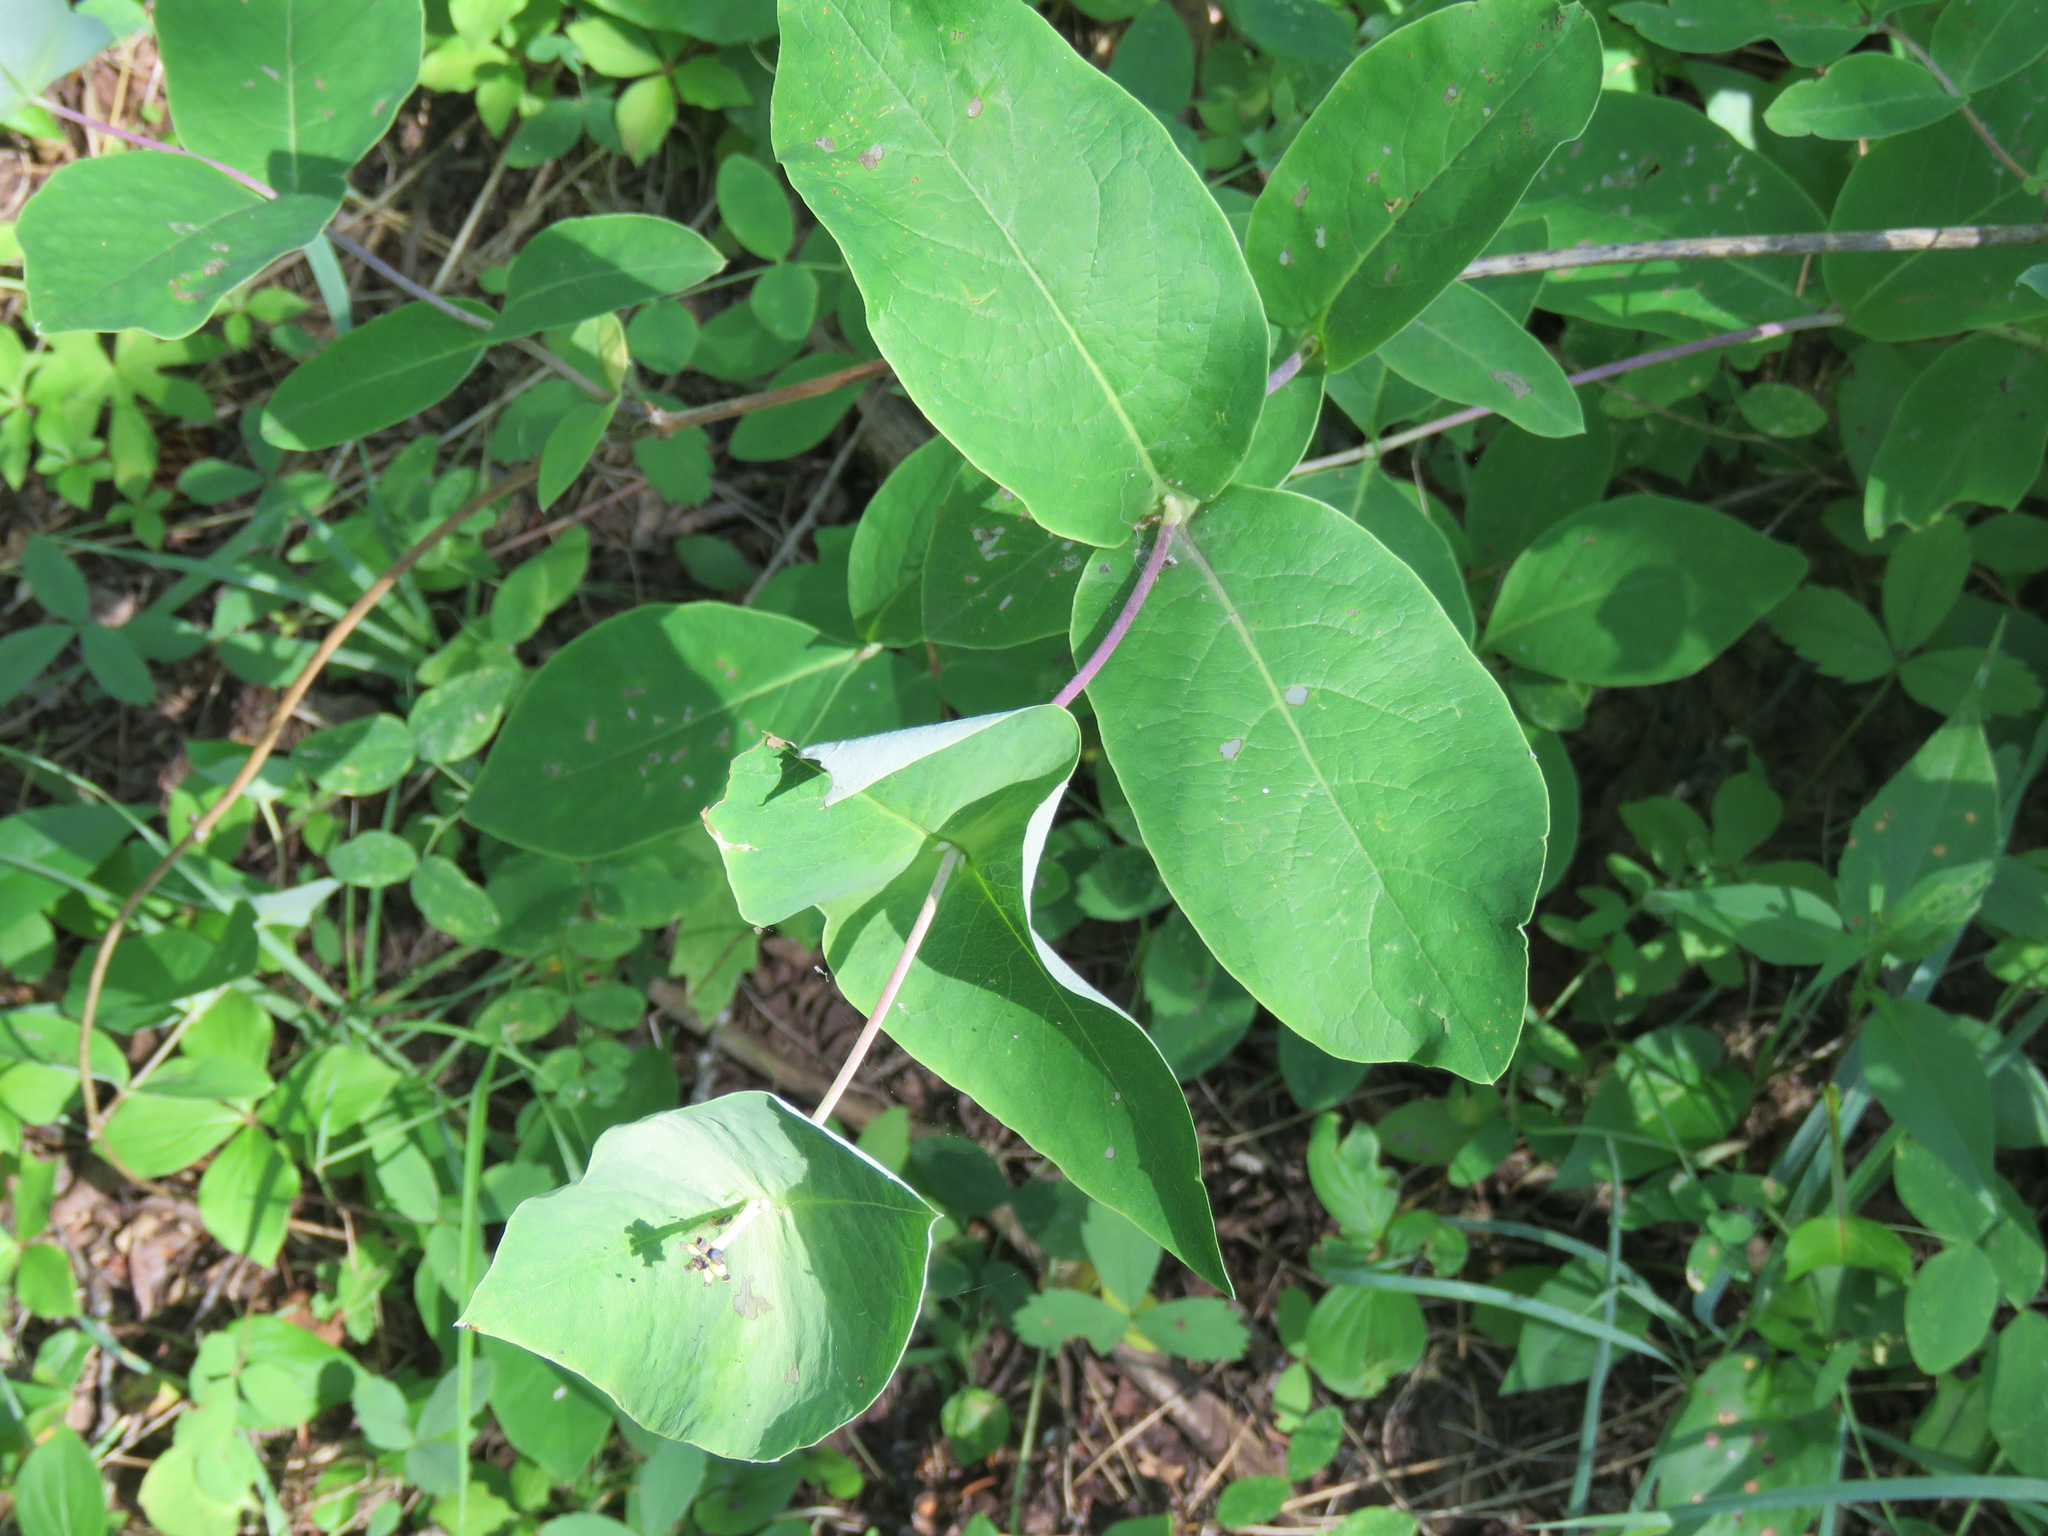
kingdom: Plantae
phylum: Tracheophyta
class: Magnoliopsida
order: Dipsacales
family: Caprifoliaceae
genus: Lonicera
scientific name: Lonicera dioica
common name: Limber honeysuckle
